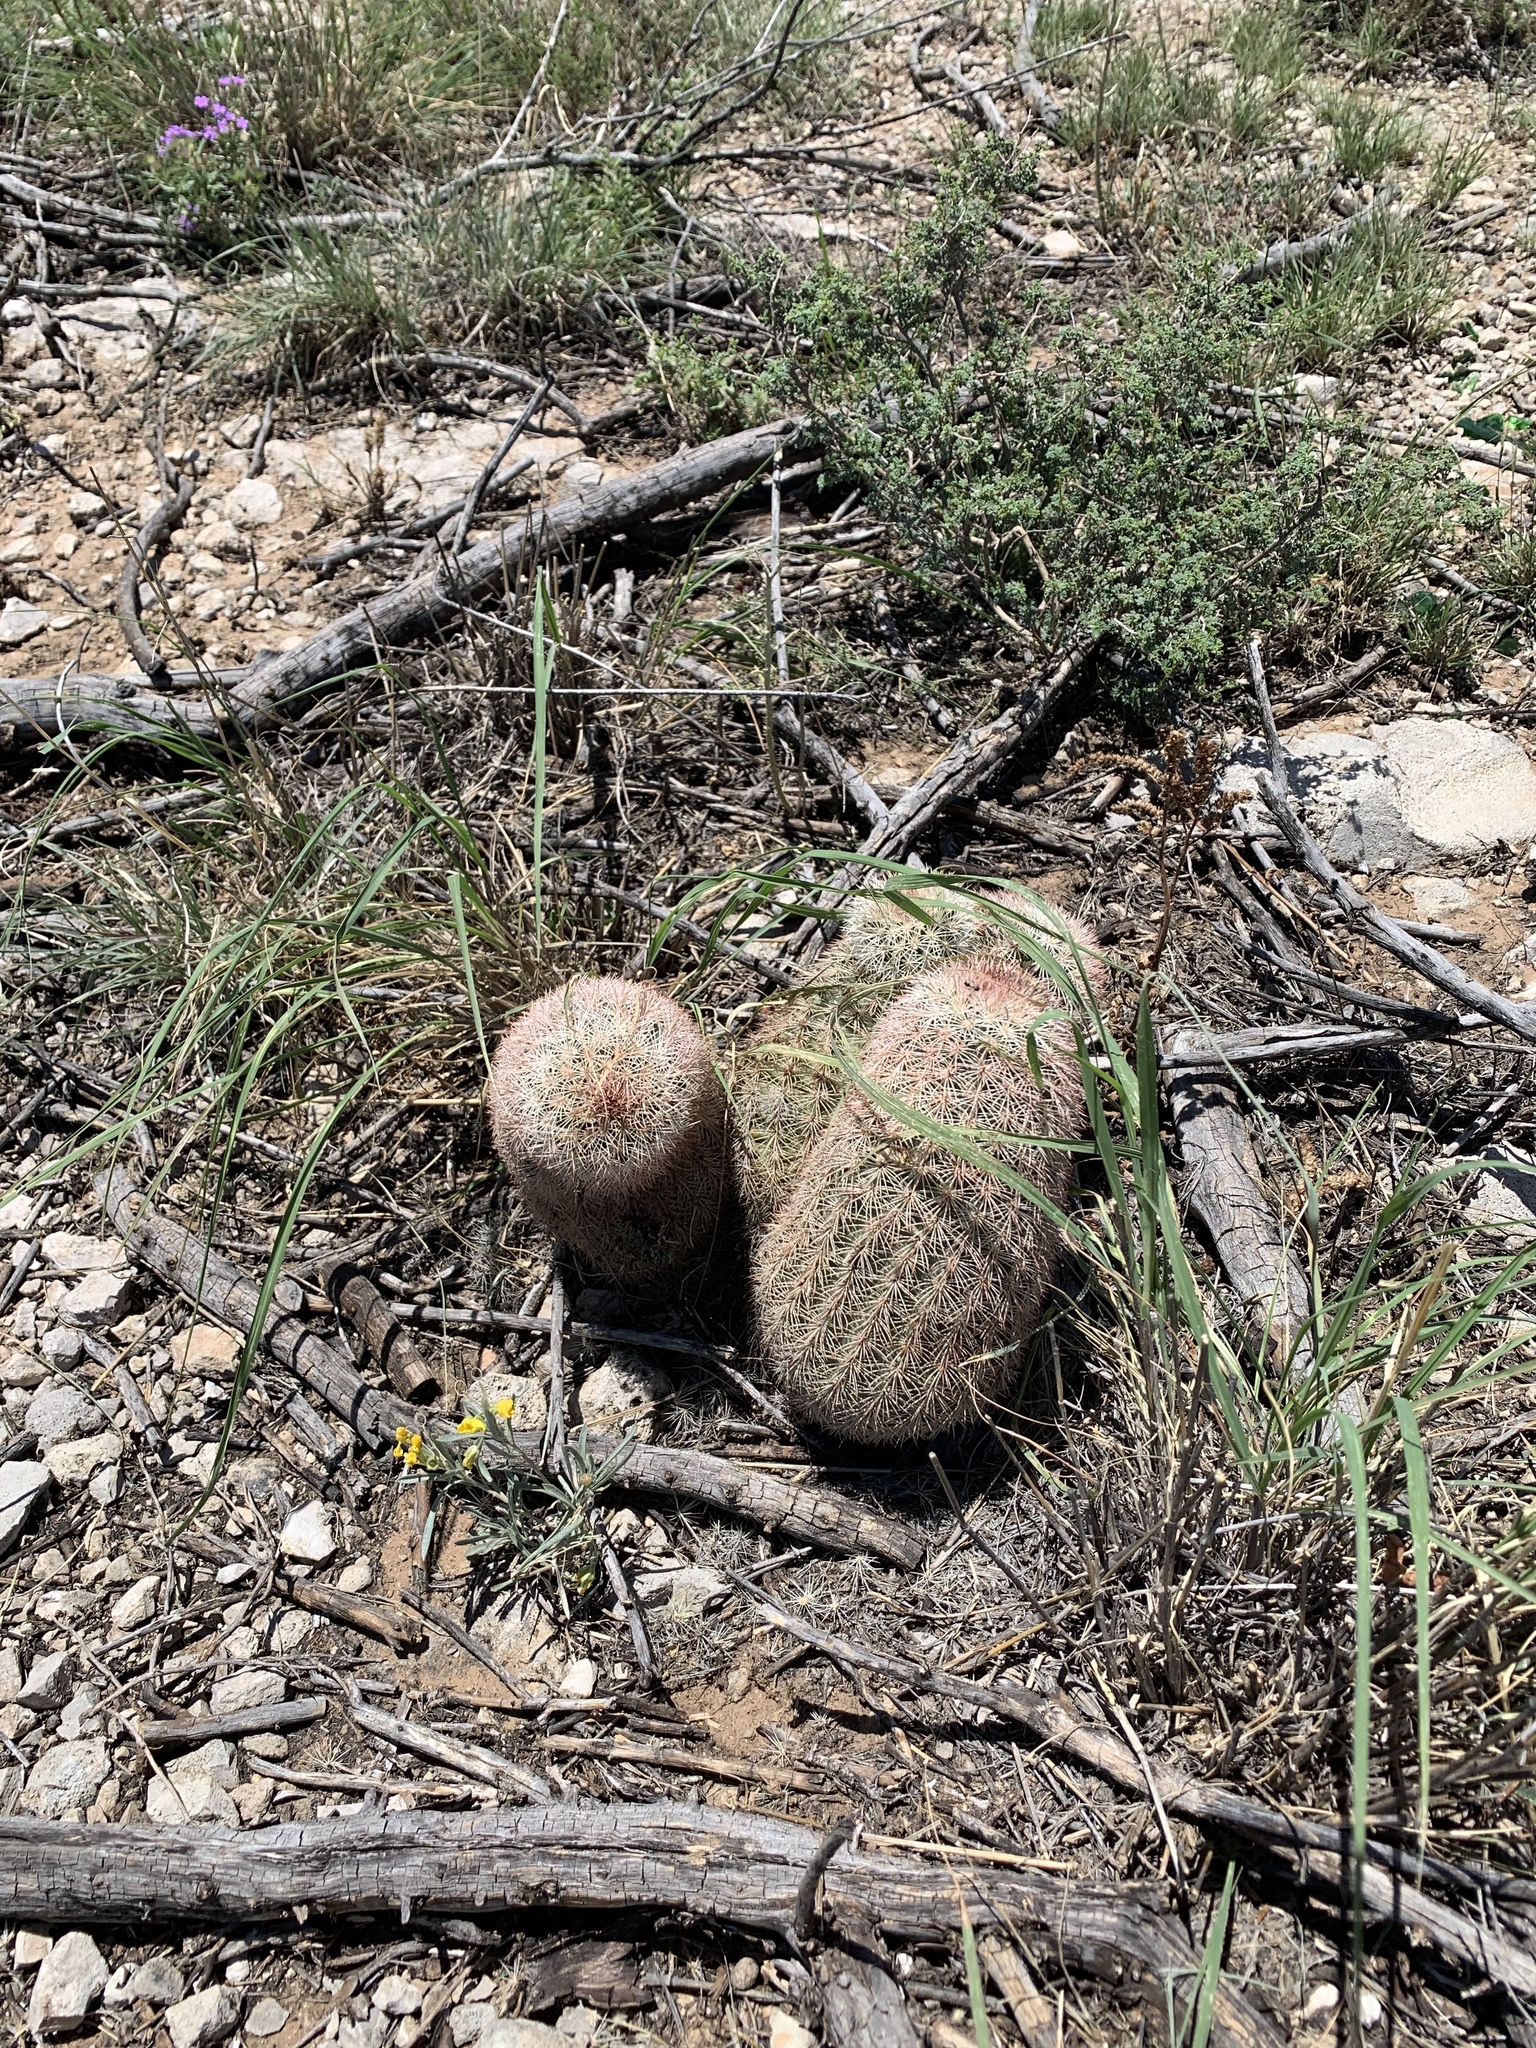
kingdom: Plantae
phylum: Tracheophyta
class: Magnoliopsida
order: Caryophyllales
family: Cactaceae
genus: Echinocereus
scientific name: Echinocereus dasyacanthus
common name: Spiny hedgehog cactus
